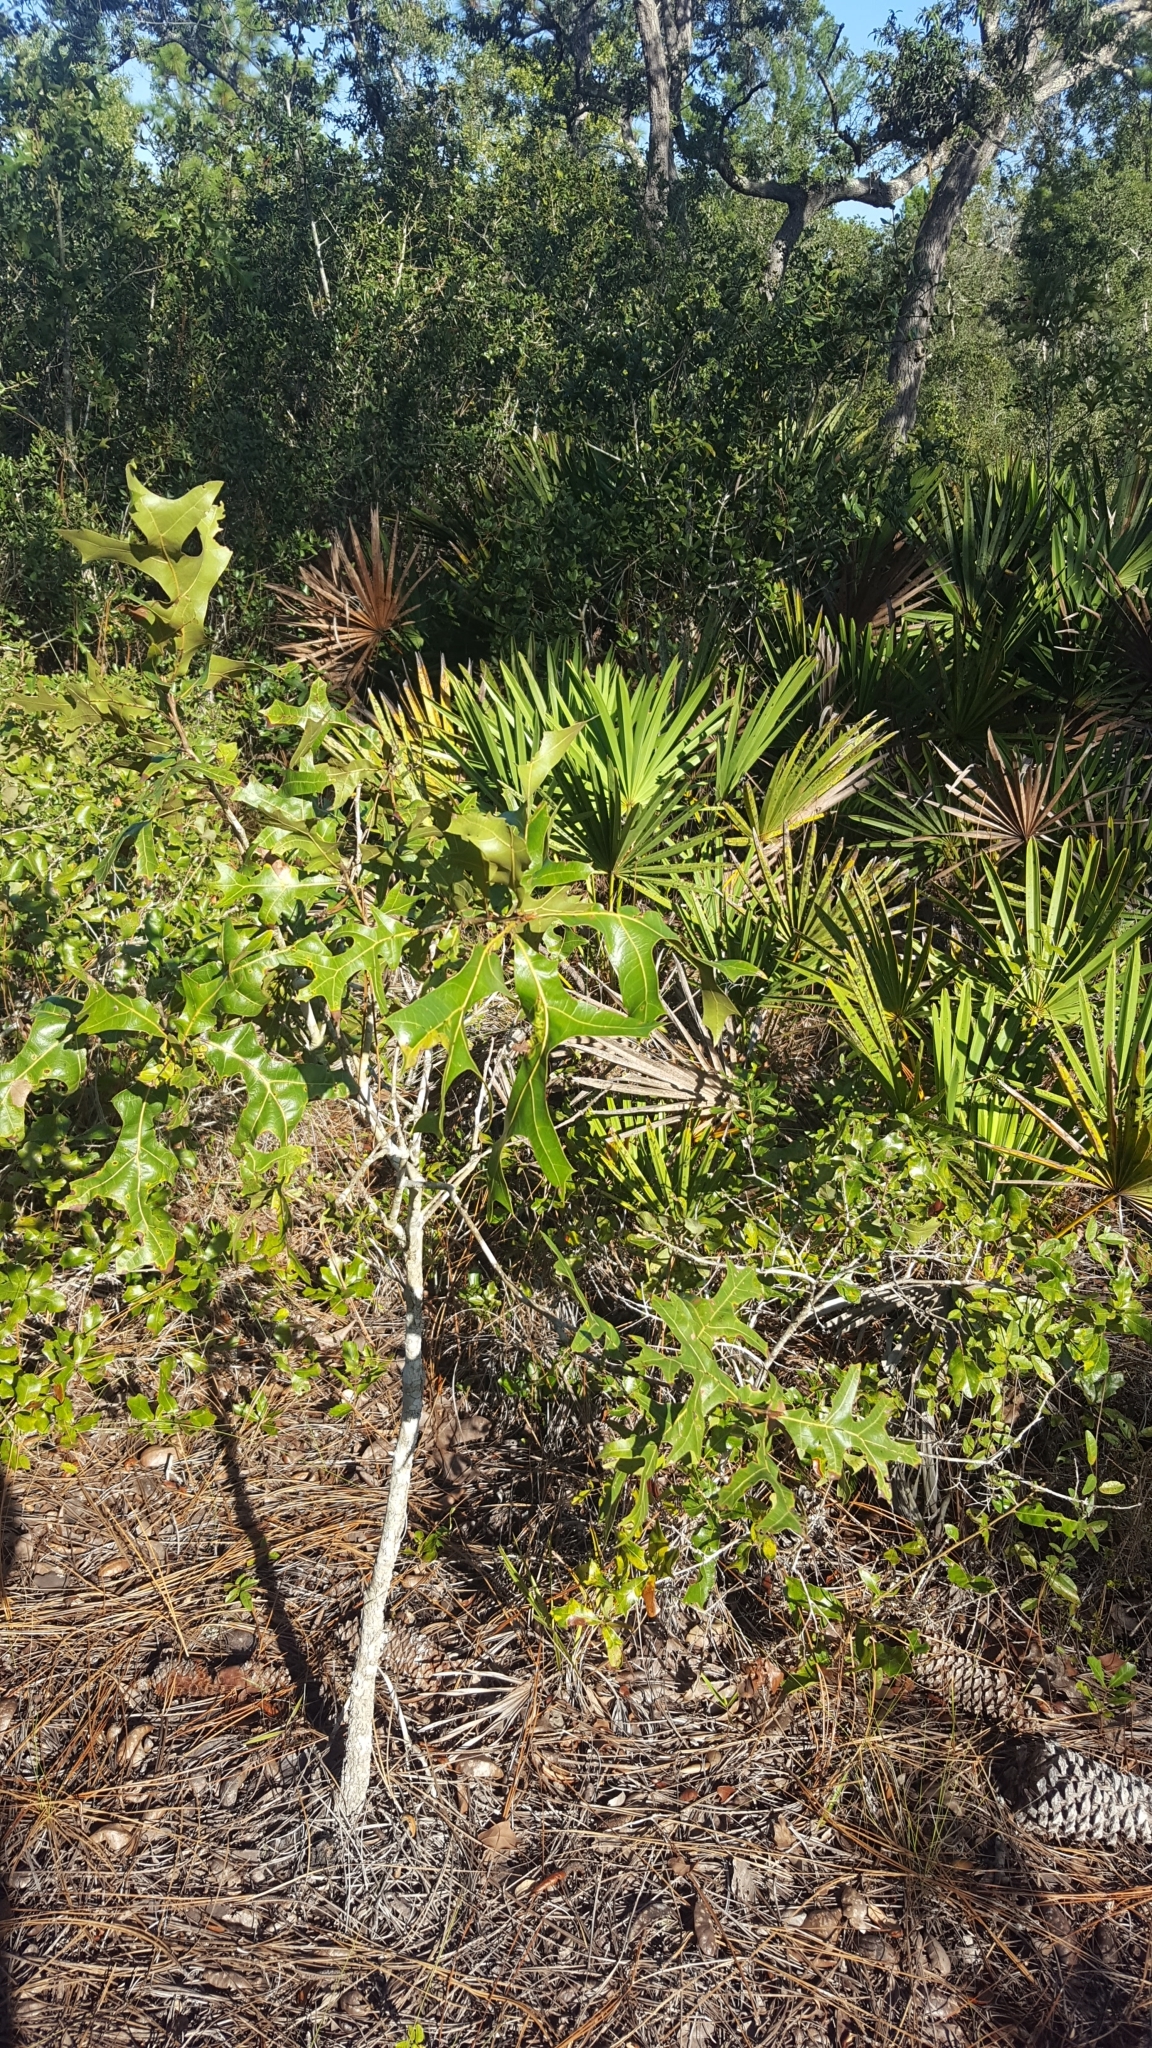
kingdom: Plantae
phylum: Tracheophyta
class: Magnoliopsida
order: Fagales
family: Fagaceae
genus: Quercus
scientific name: Quercus laevis
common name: Turkey oak
